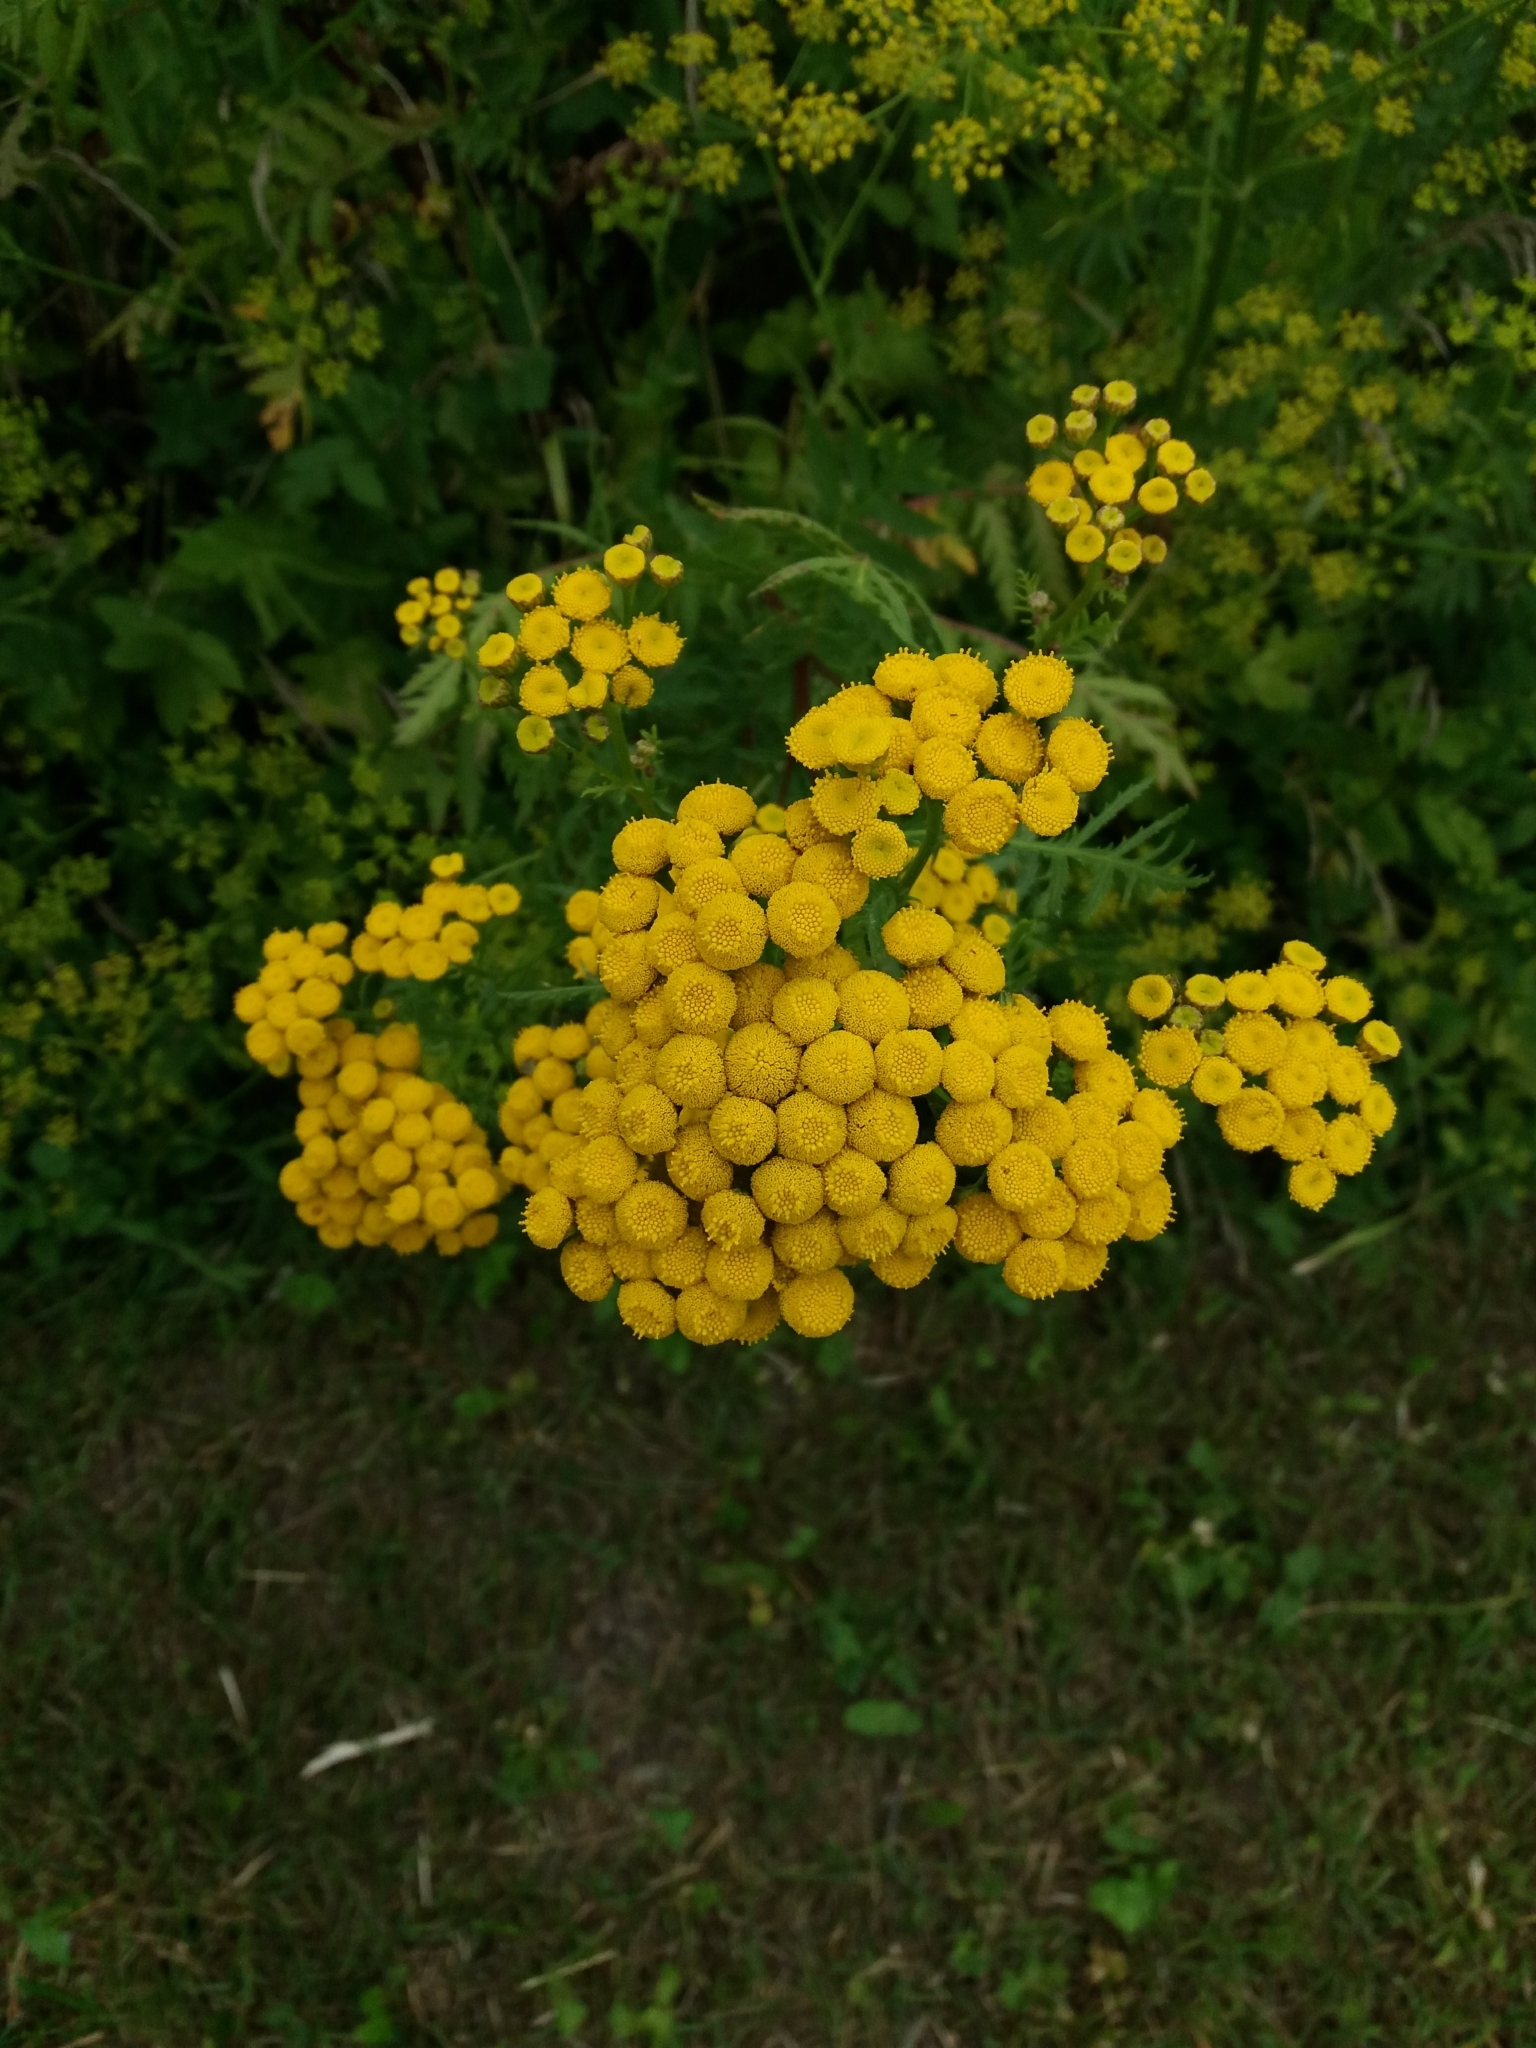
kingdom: Plantae
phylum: Tracheophyta
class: Magnoliopsida
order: Asterales
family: Asteraceae
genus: Tanacetum
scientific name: Tanacetum vulgare
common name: Common tansy
